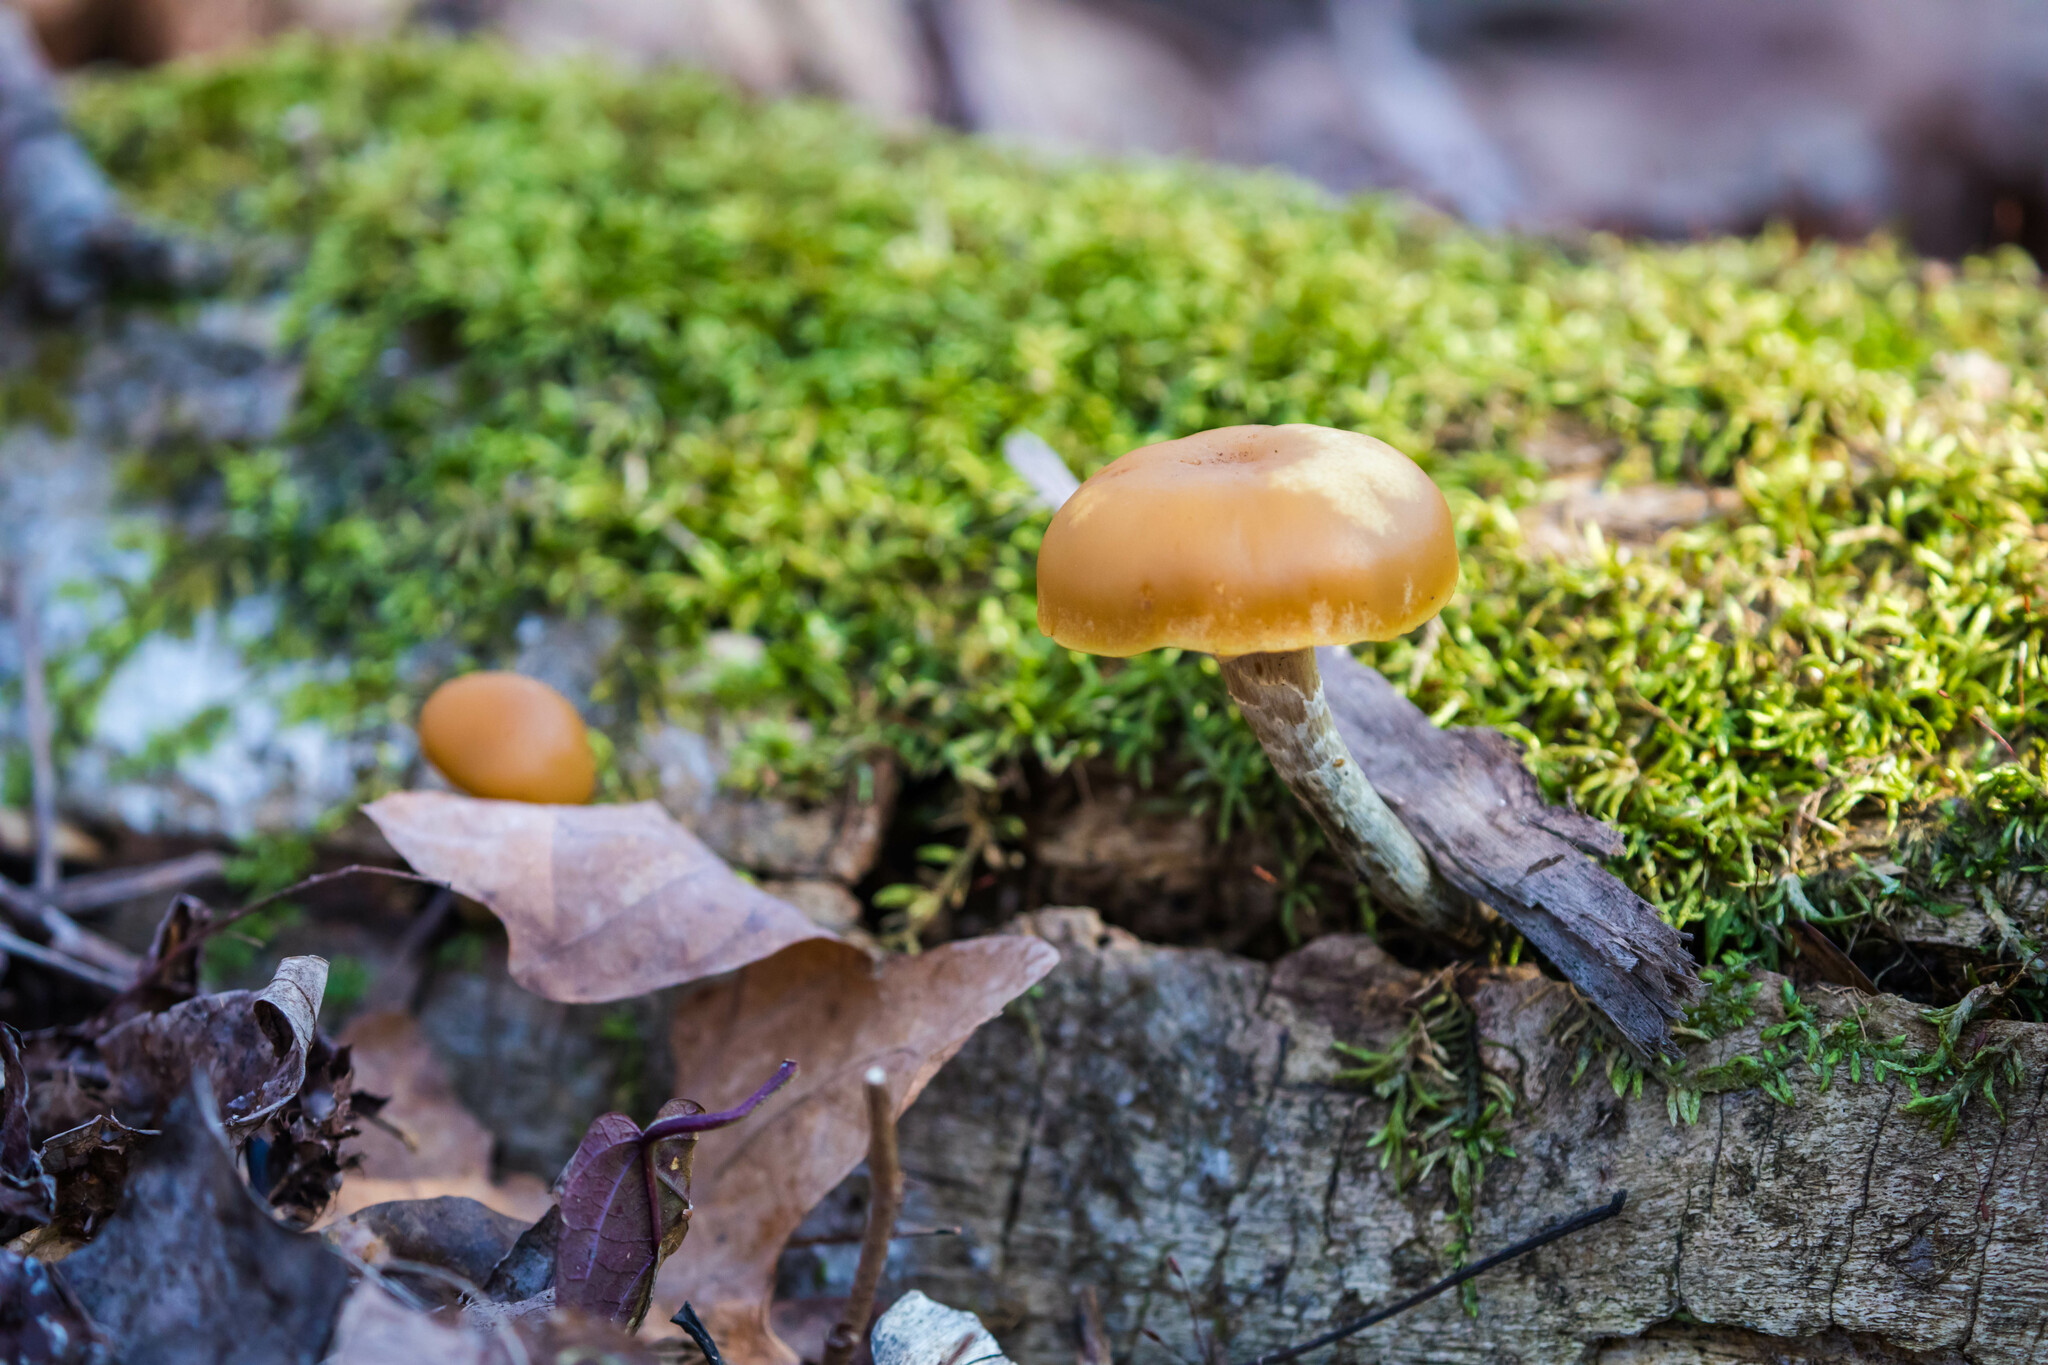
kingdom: Fungi
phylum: Basidiomycota
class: Agaricomycetes
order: Agaricales
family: Hymenogastraceae
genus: Galerina
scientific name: Galerina marginata
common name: Funeral bell
